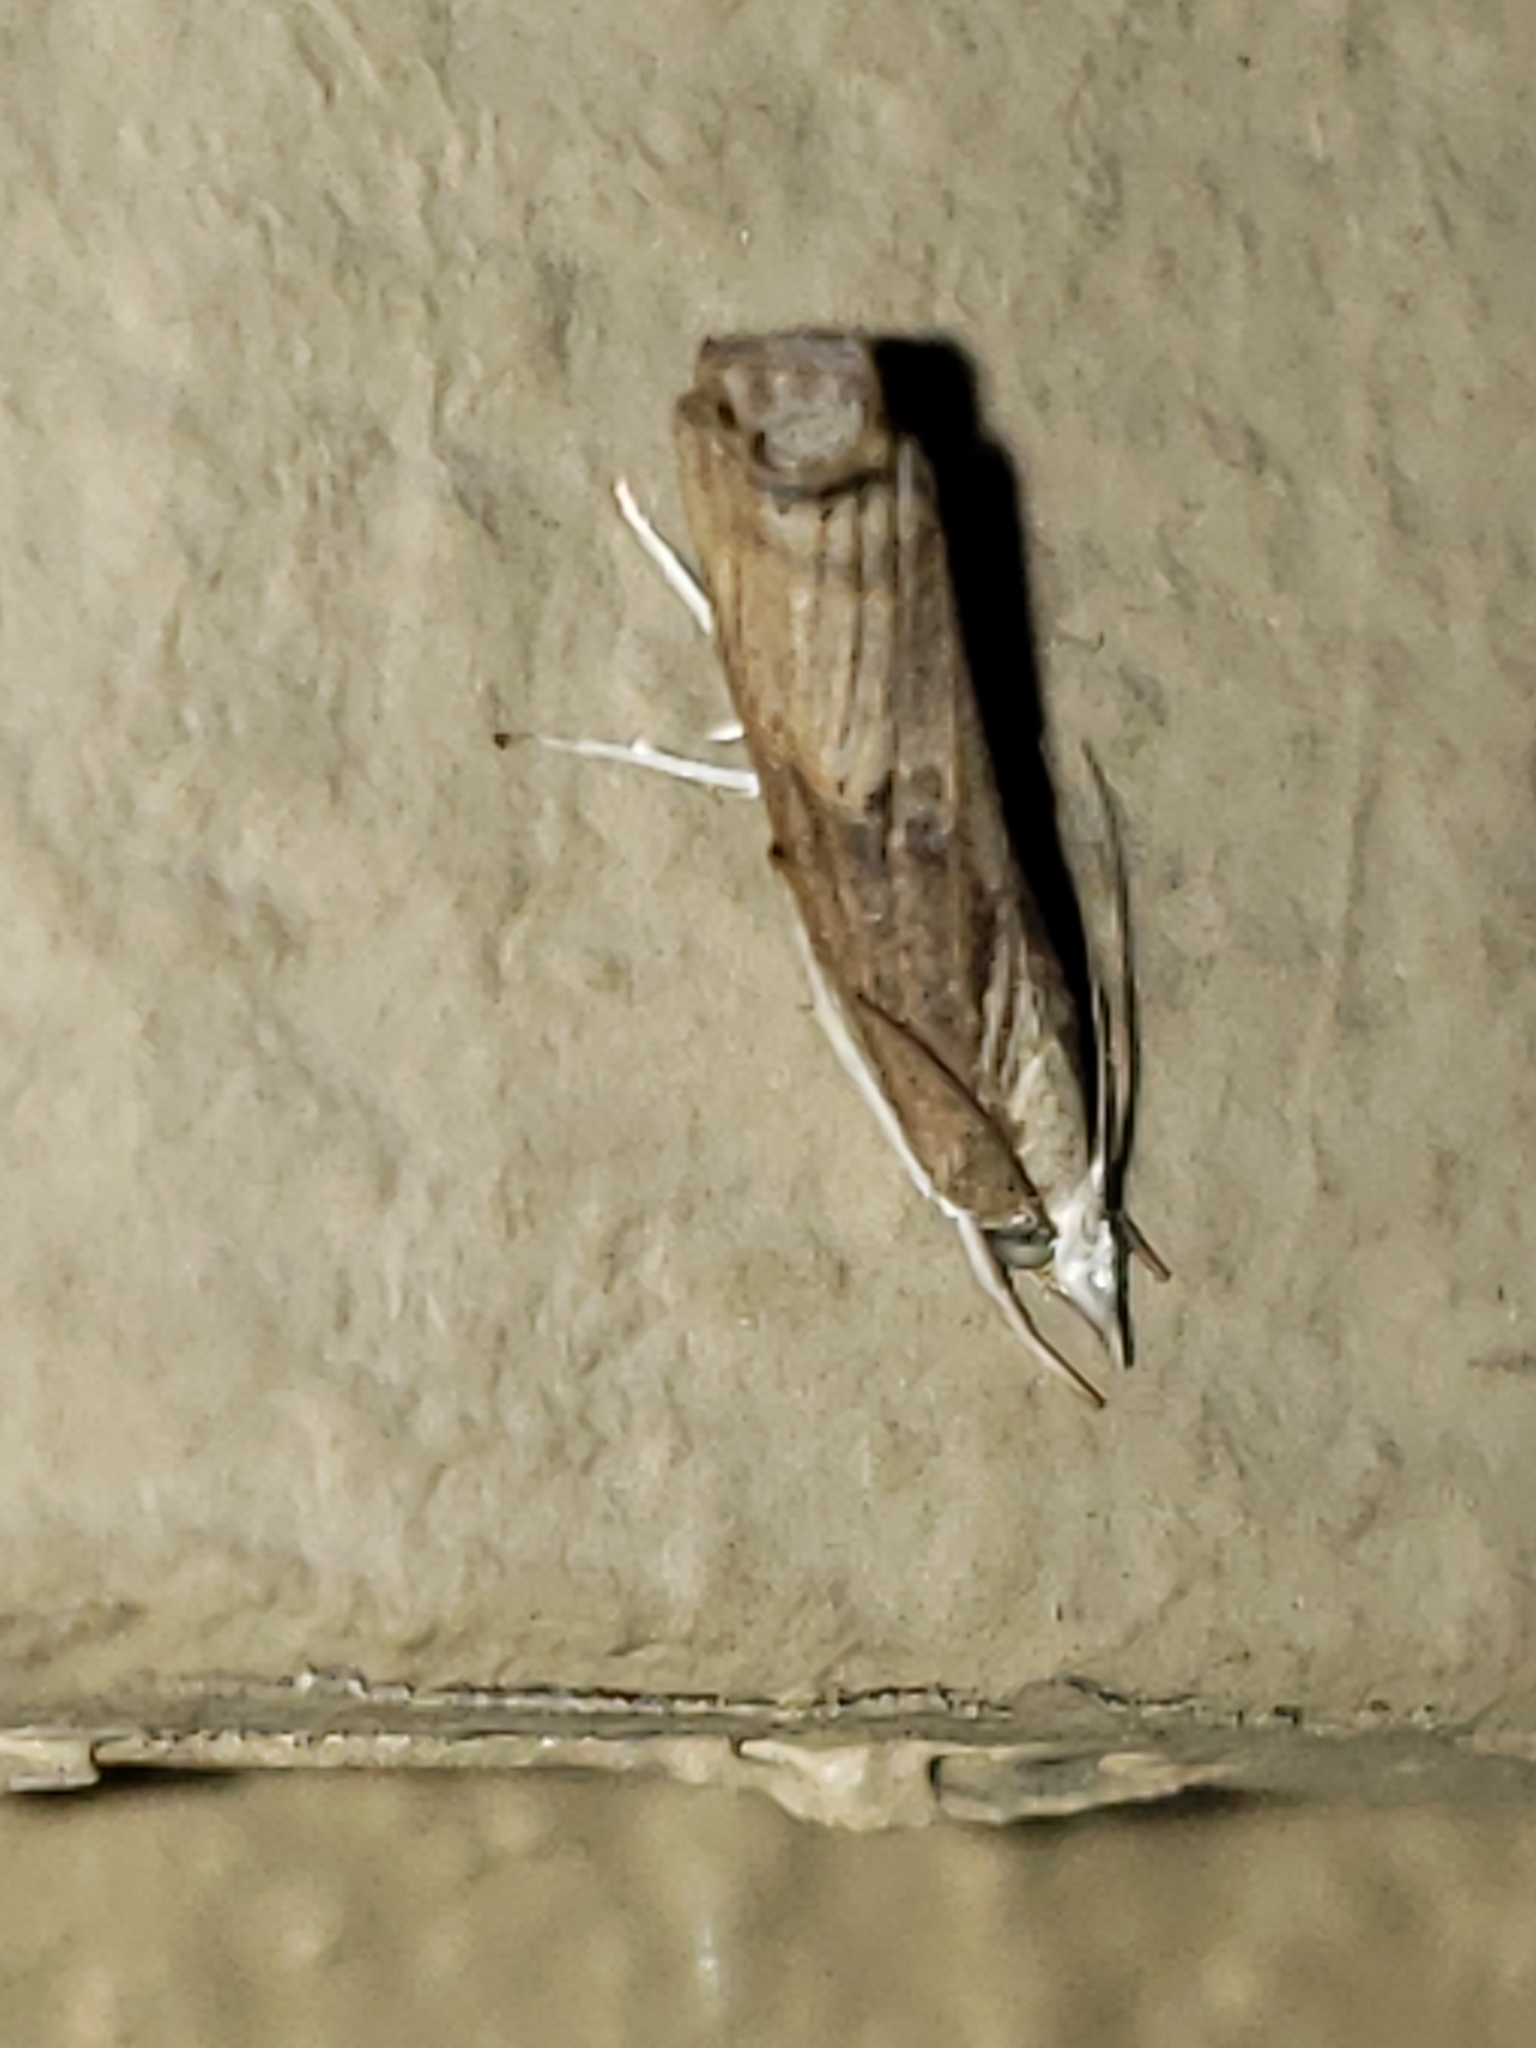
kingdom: Animalia
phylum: Arthropoda
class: Insecta
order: Lepidoptera
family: Crambidae
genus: Parapediasia
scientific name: Parapediasia teterellus
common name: Bluegrass webworm moth
